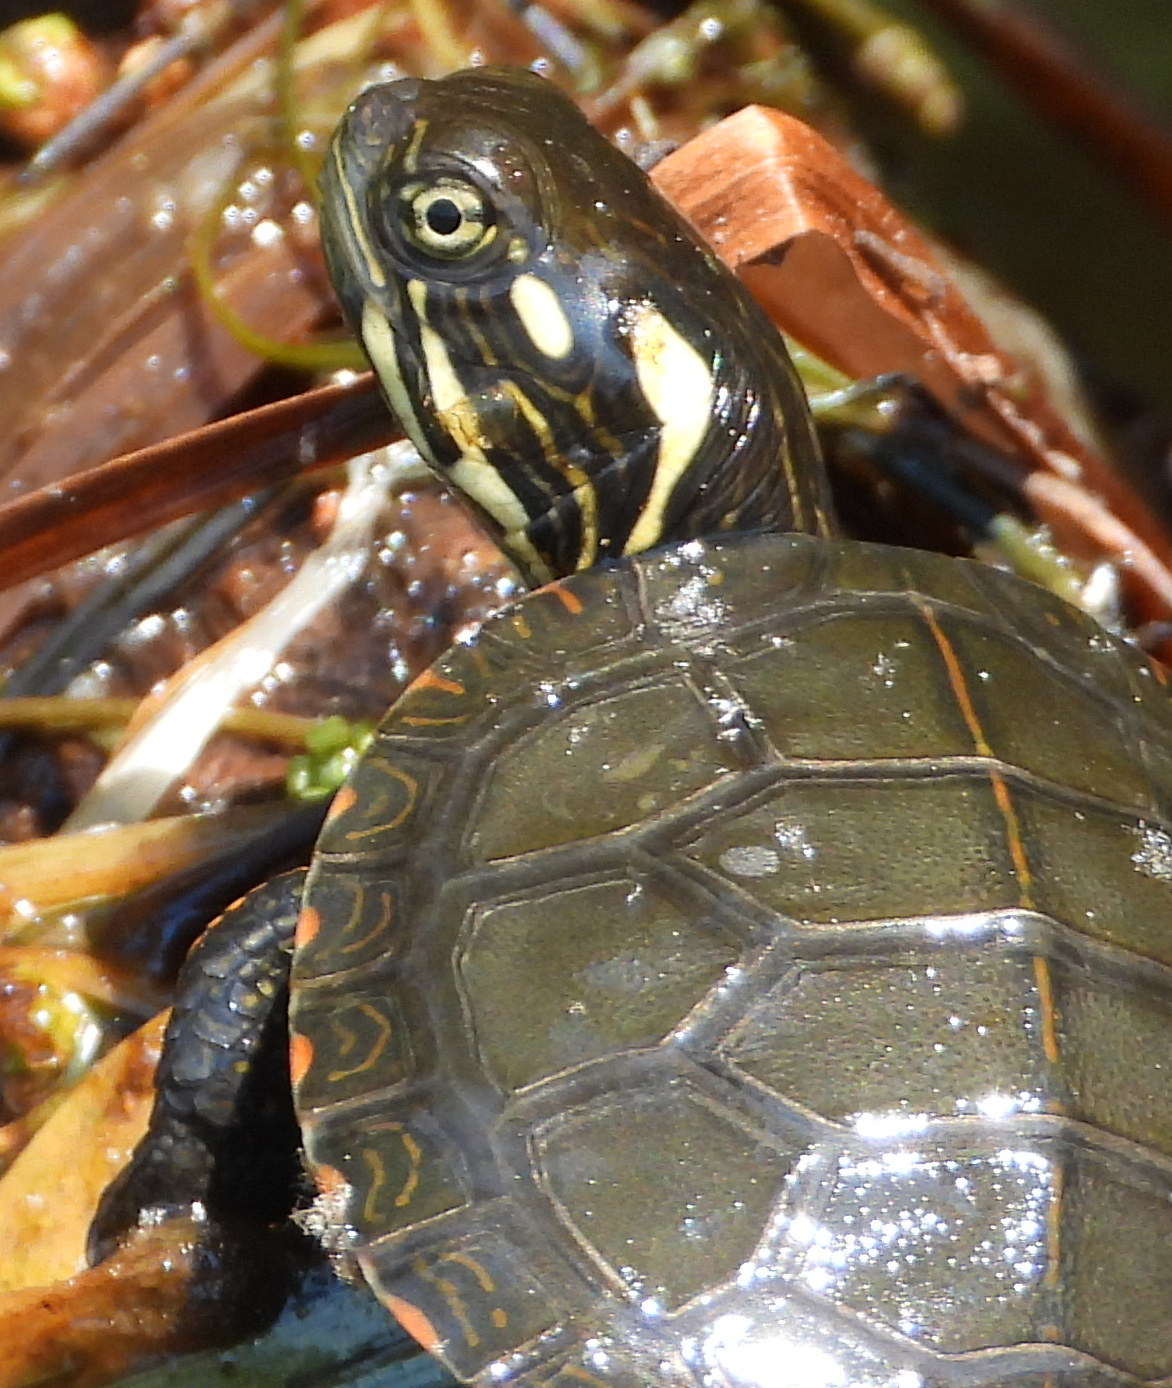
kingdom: Animalia
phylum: Chordata
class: Testudines
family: Emydidae
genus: Chrysemys
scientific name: Chrysemys picta
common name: Painted turtle
